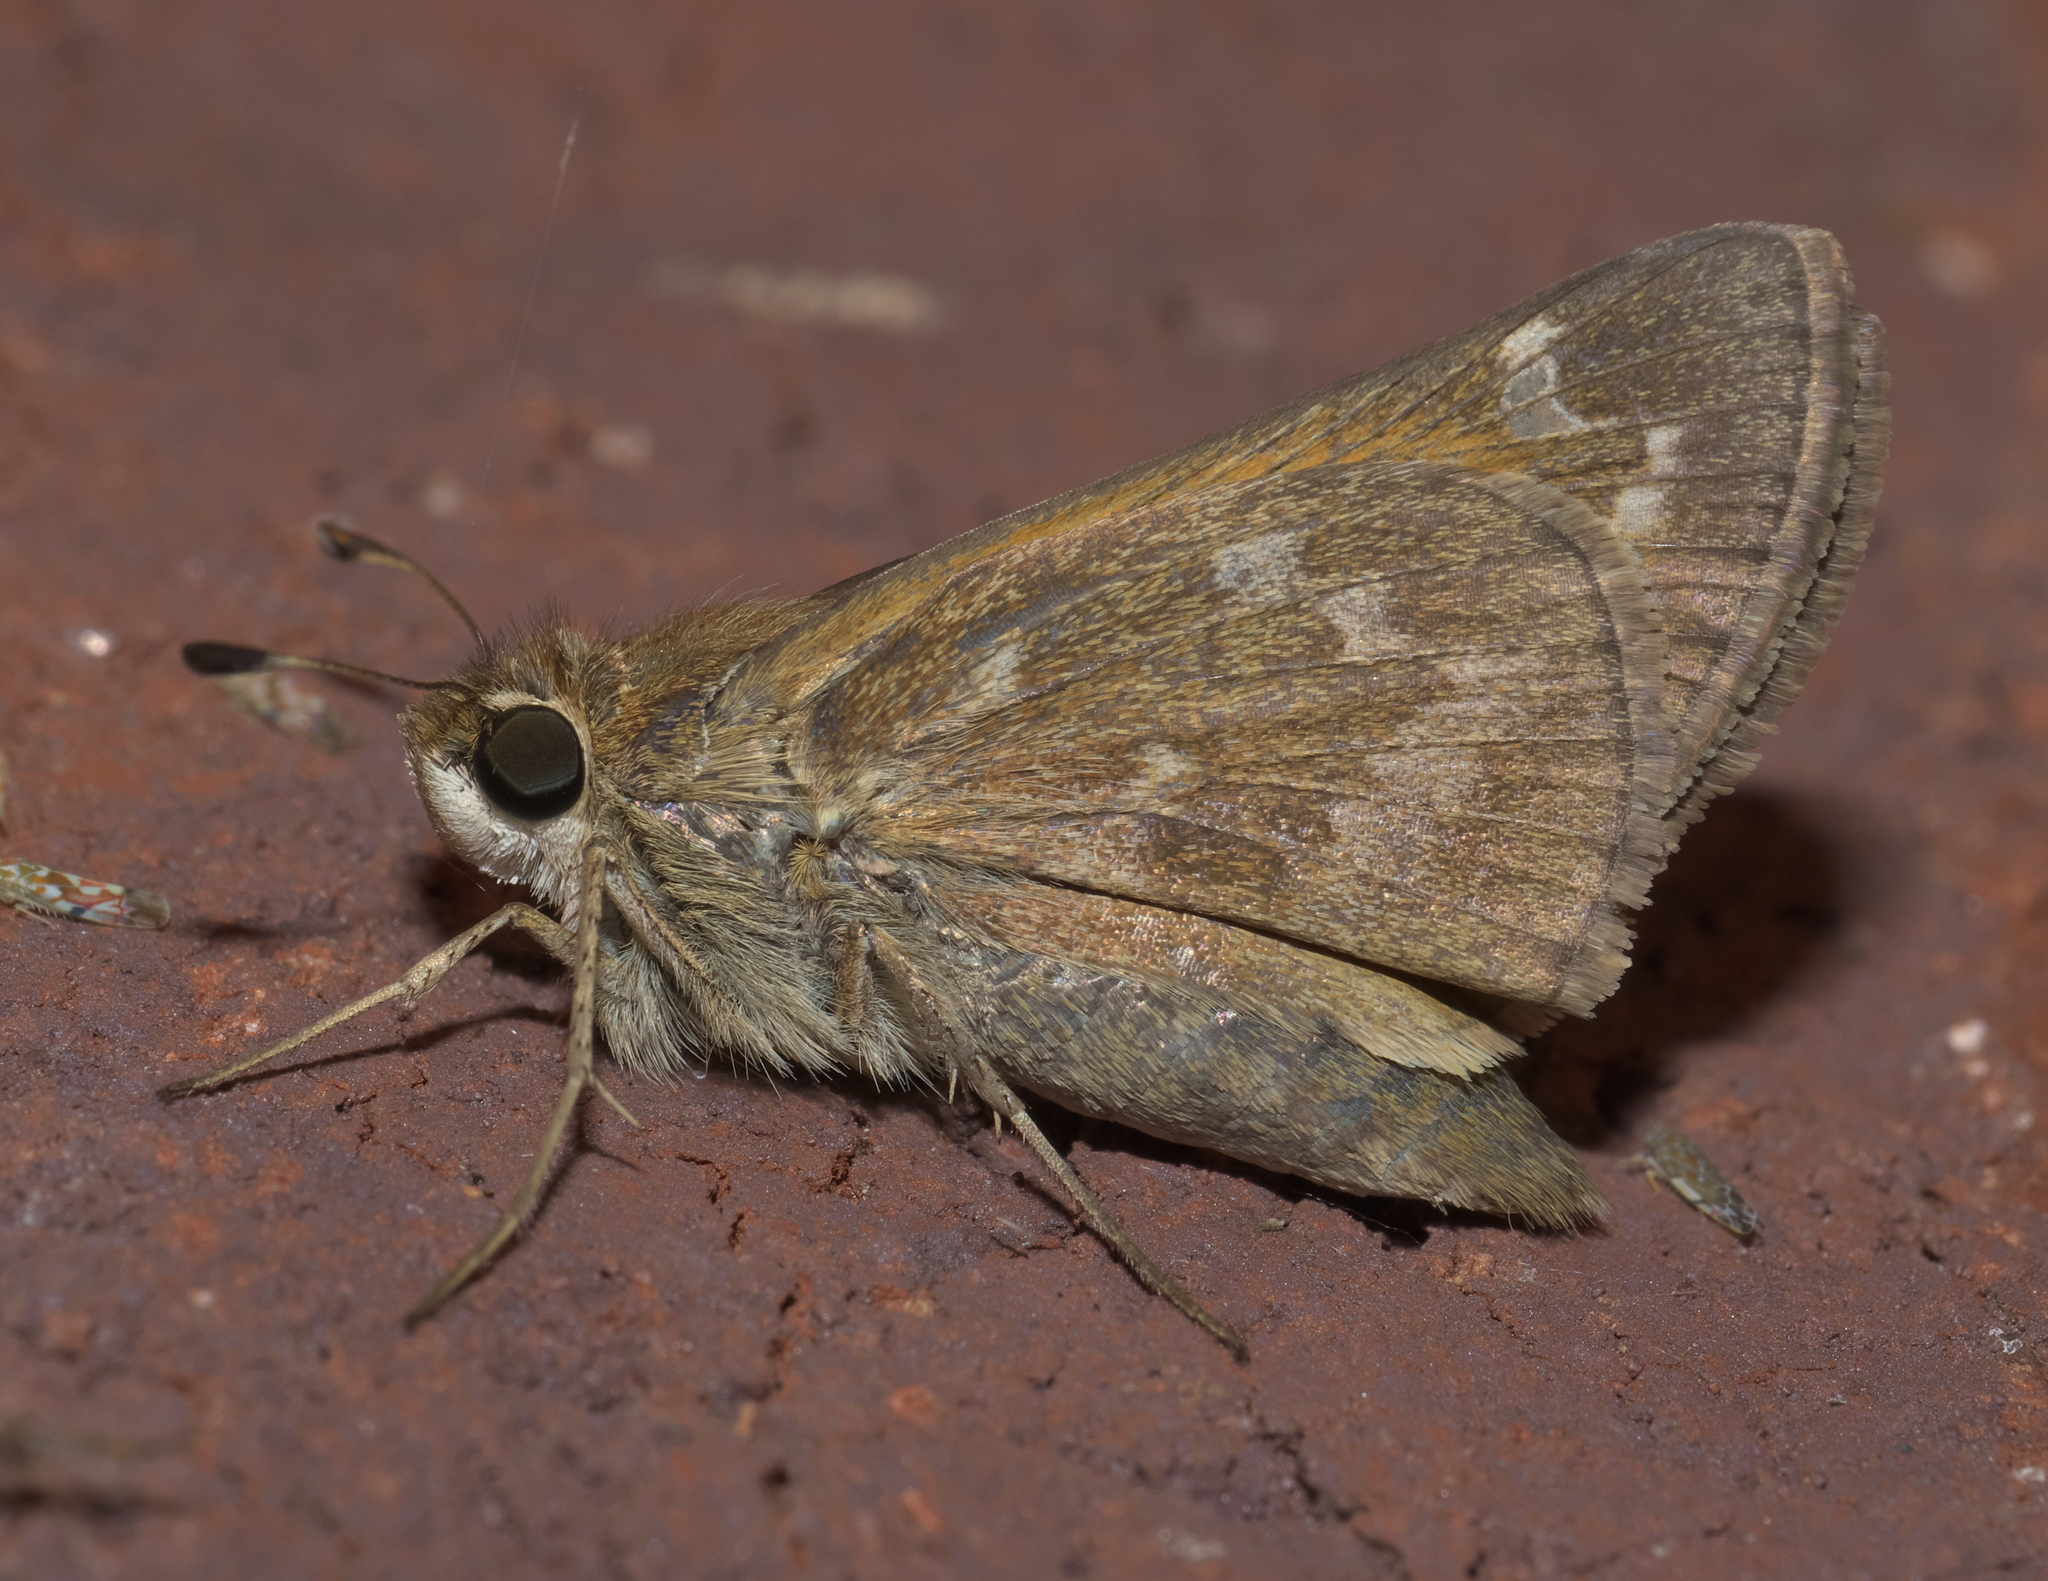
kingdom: Animalia
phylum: Arthropoda
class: Insecta
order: Lepidoptera
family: Hesperiidae
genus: Atalopedes
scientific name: Atalopedes
